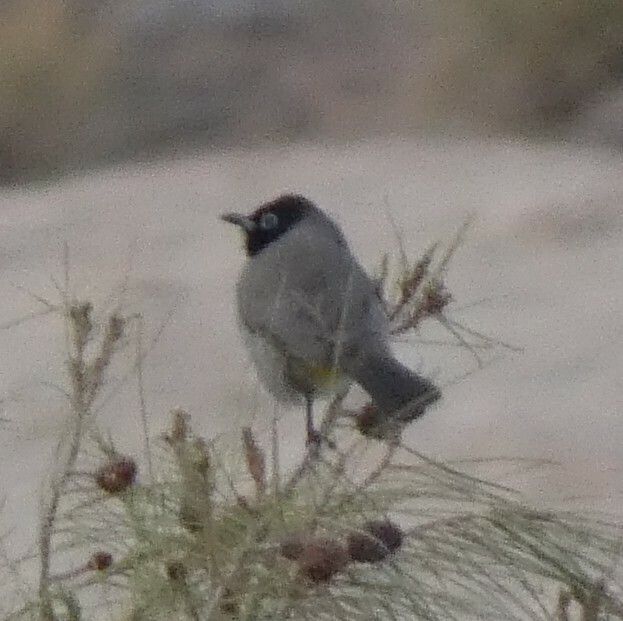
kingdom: Animalia
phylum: Chordata
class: Aves
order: Passeriformes
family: Pycnonotidae
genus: Pycnonotus
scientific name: Pycnonotus xanthopygos
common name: White-spectacled bulbul
